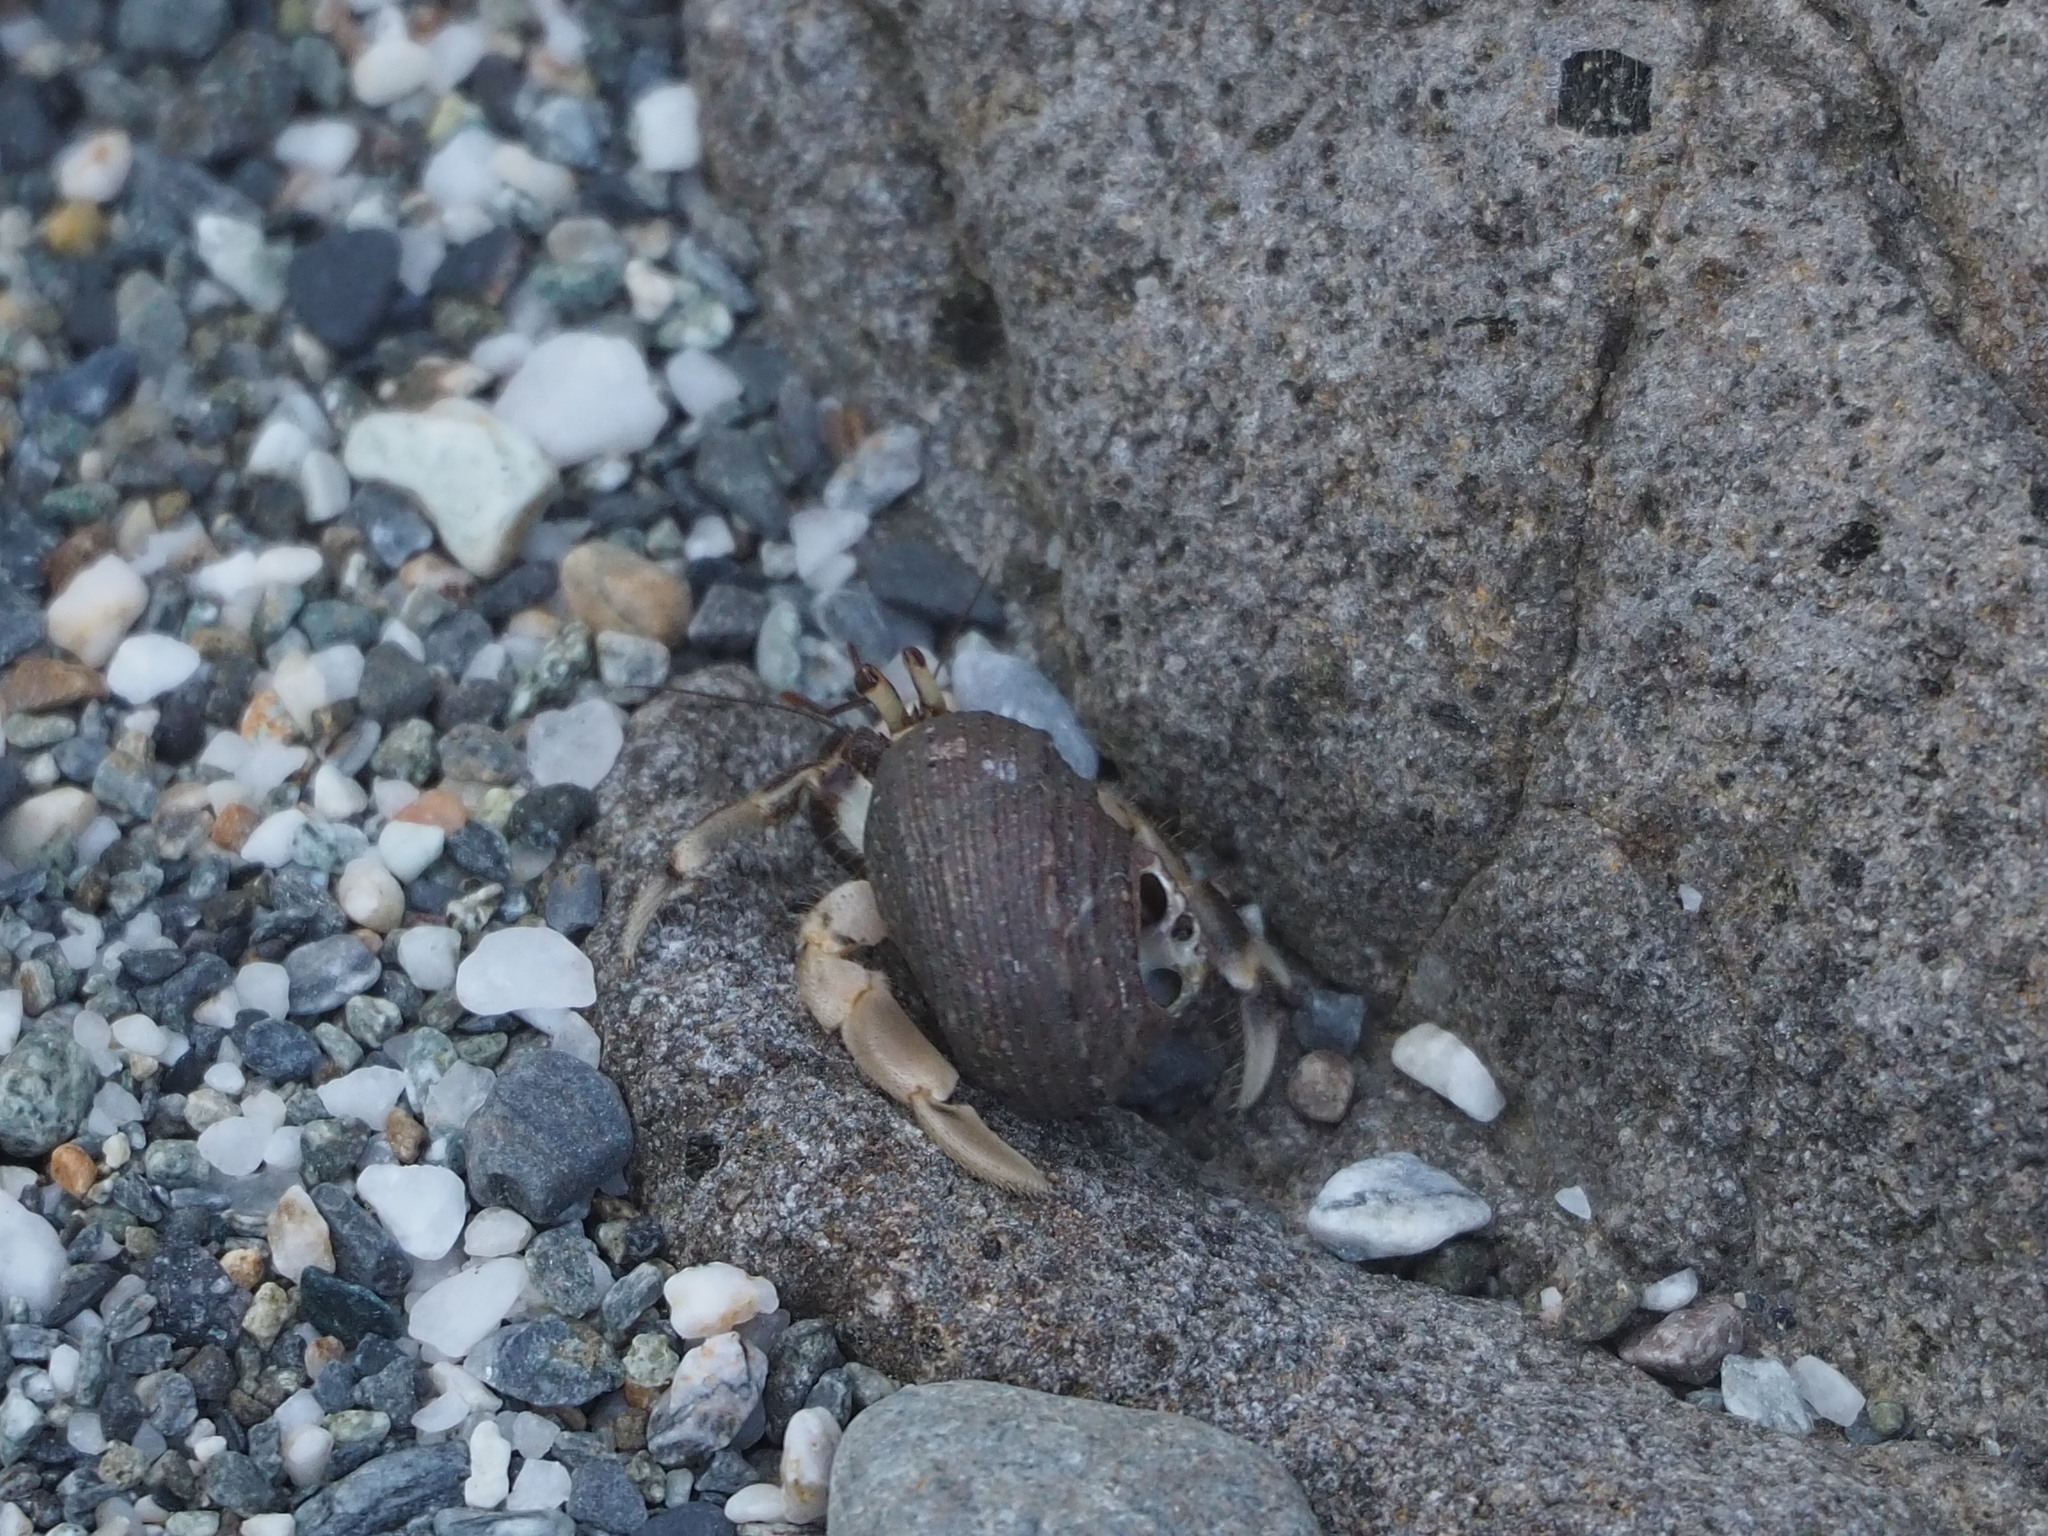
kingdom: Animalia
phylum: Arthropoda
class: Malacostraca
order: Decapoda
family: Coenobitidae
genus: Coenobita
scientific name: Coenobita rugosus
